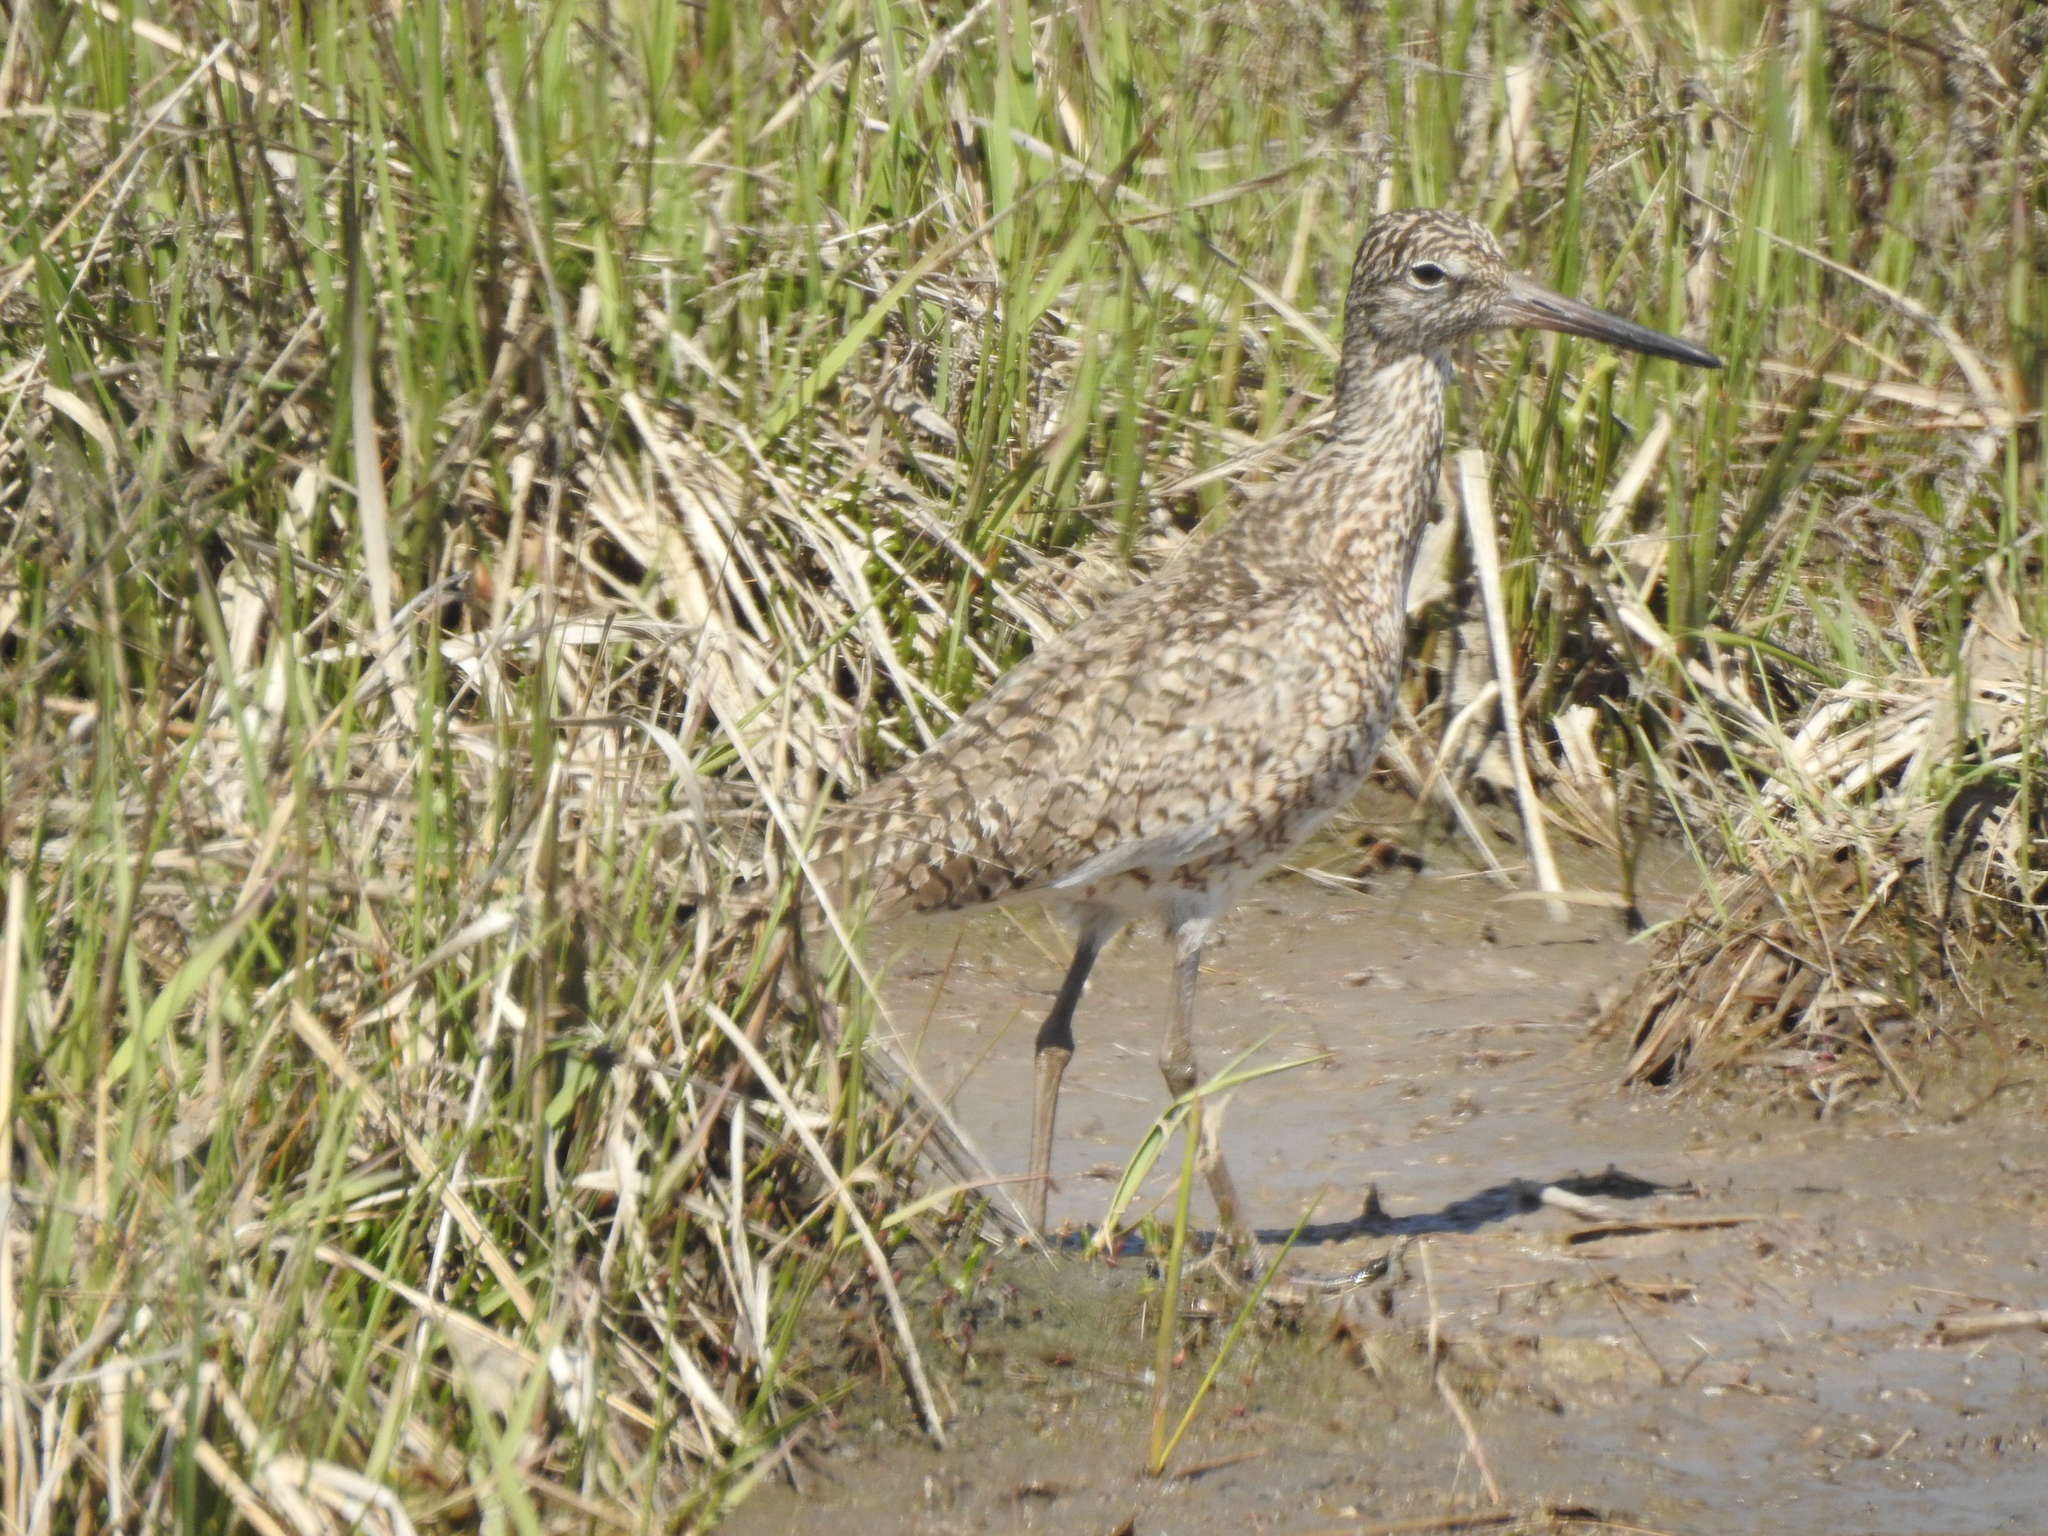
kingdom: Animalia
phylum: Chordata
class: Aves
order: Charadriiformes
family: Scolopacidae
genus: Tringa
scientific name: Tringa semipalmata
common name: Willet
